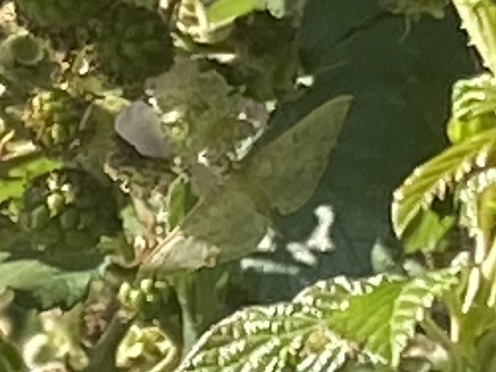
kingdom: Animalia
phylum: Arthropoda
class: Insecta
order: Lepidoptera
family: Crambidae
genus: Patania
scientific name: Patania ruralis
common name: Mother of pearl
